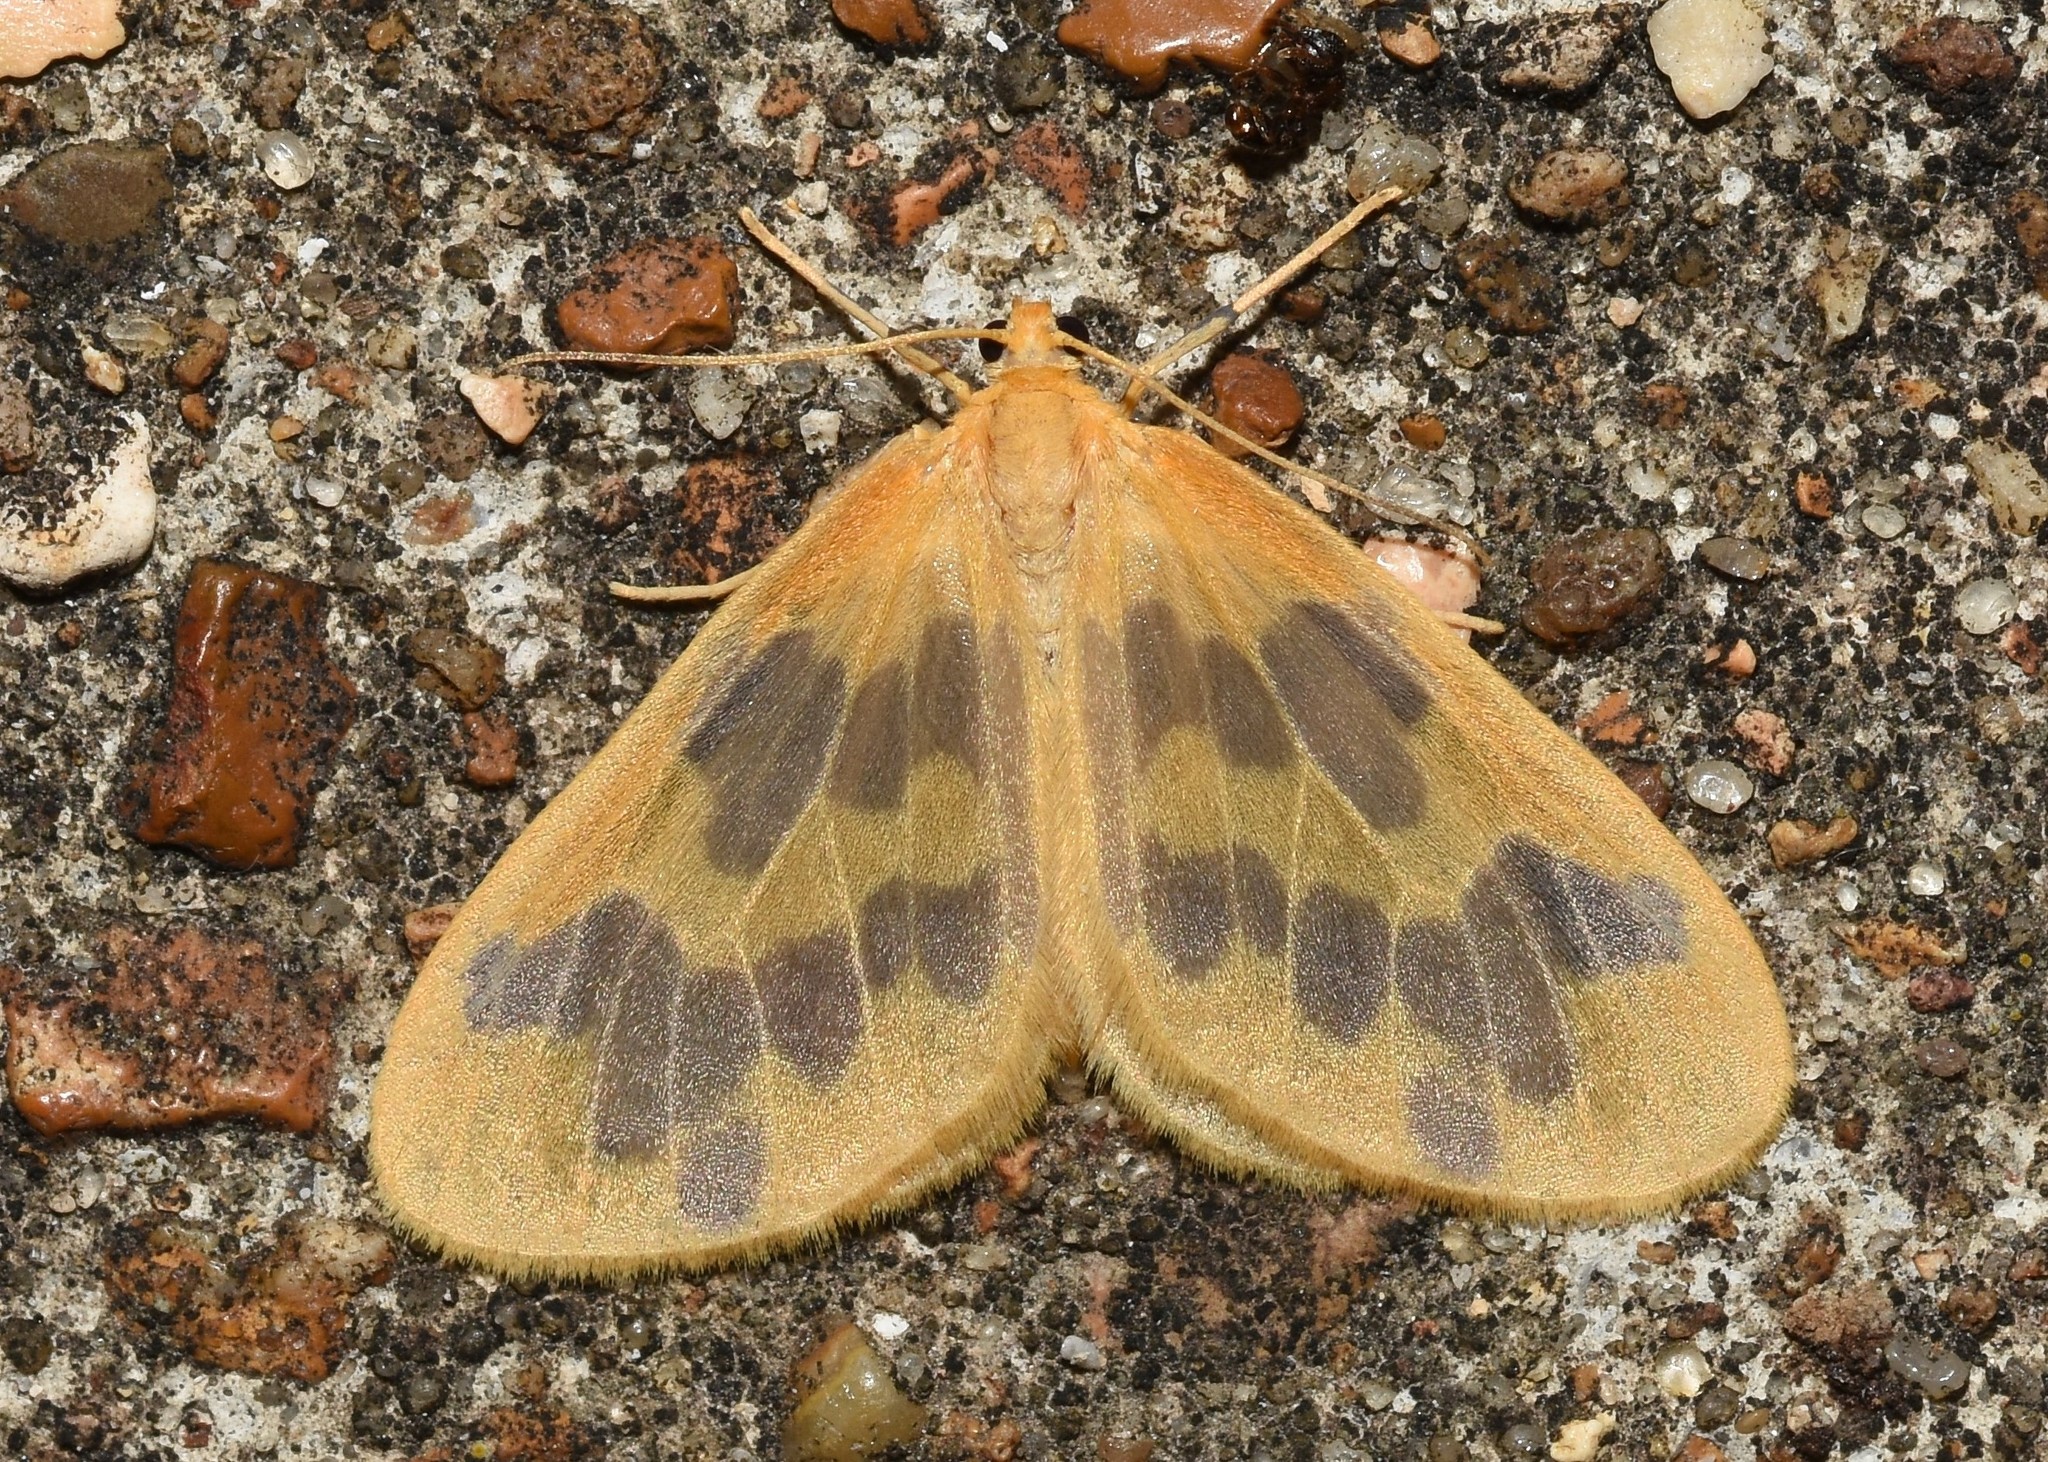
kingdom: Animalia
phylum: Arthropoda
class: Insecta
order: Lepidoptera
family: Geometridae
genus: Eubaphe
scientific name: Eubaphe mendica
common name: Beggar
